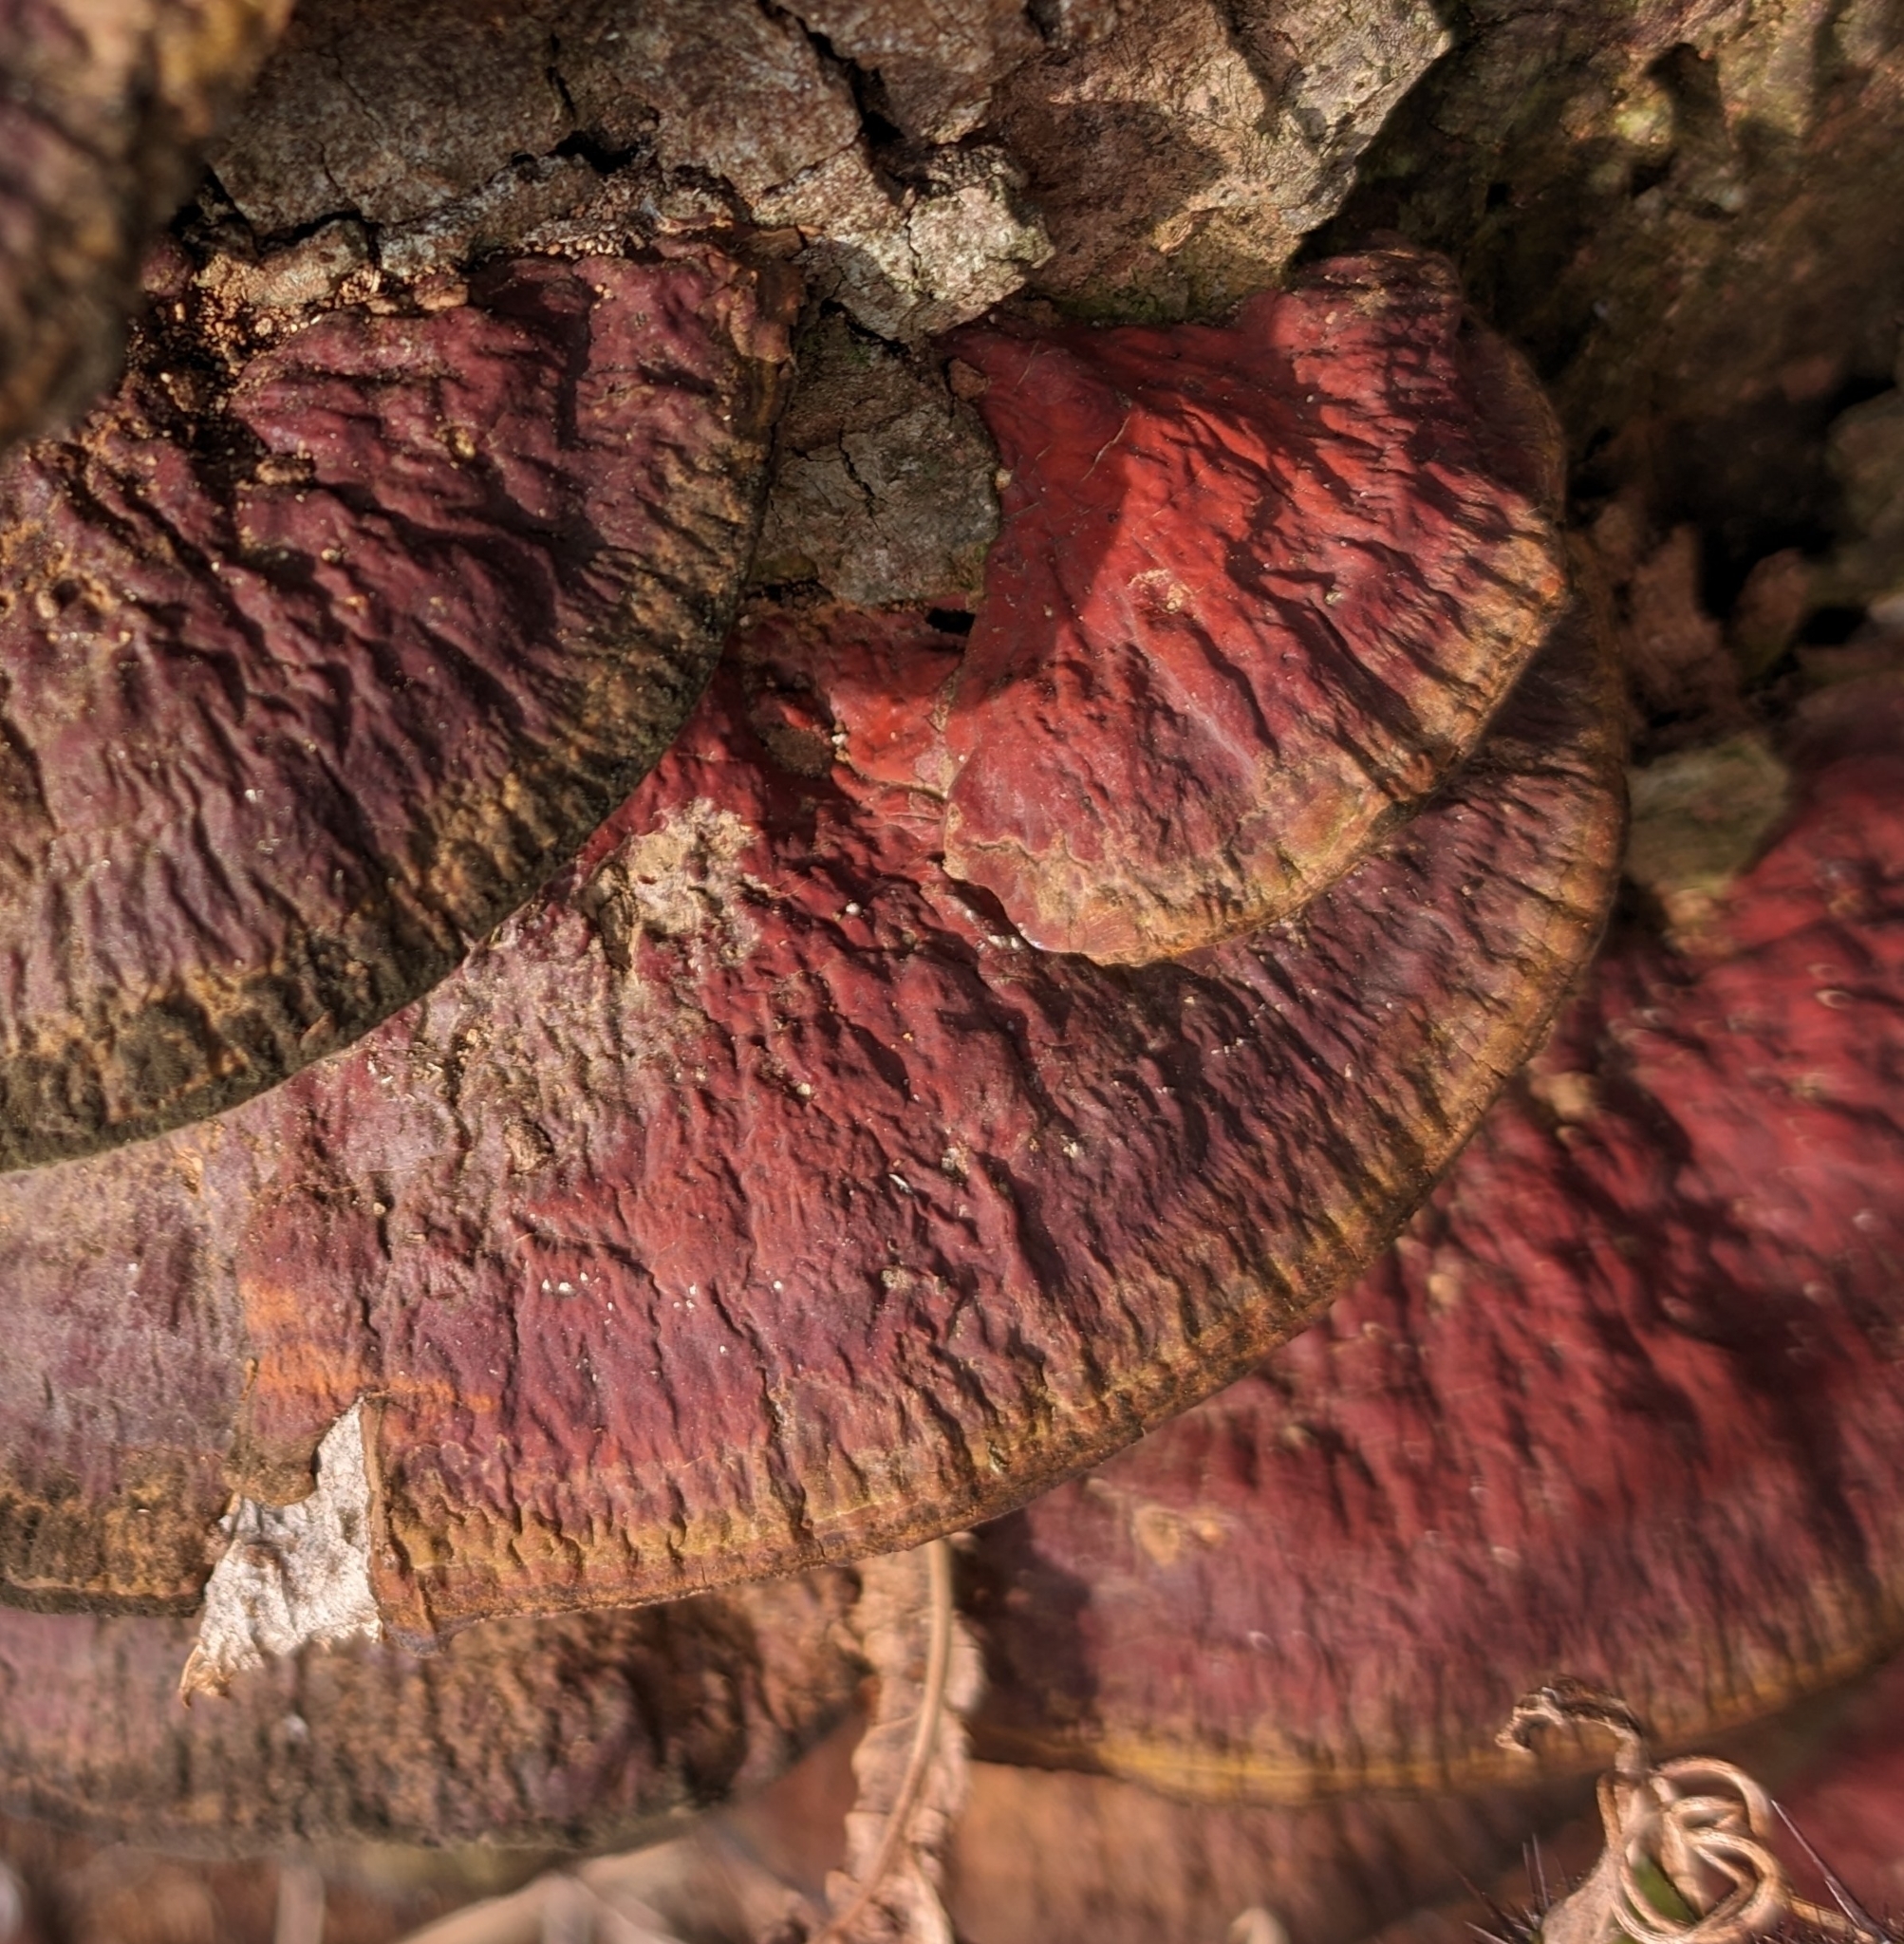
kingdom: Fungi
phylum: Basidiomycota
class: Agaricomycetes
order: Polyporales
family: Polyporaceae
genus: Ganoderma
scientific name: Ganoderma resinaceum
